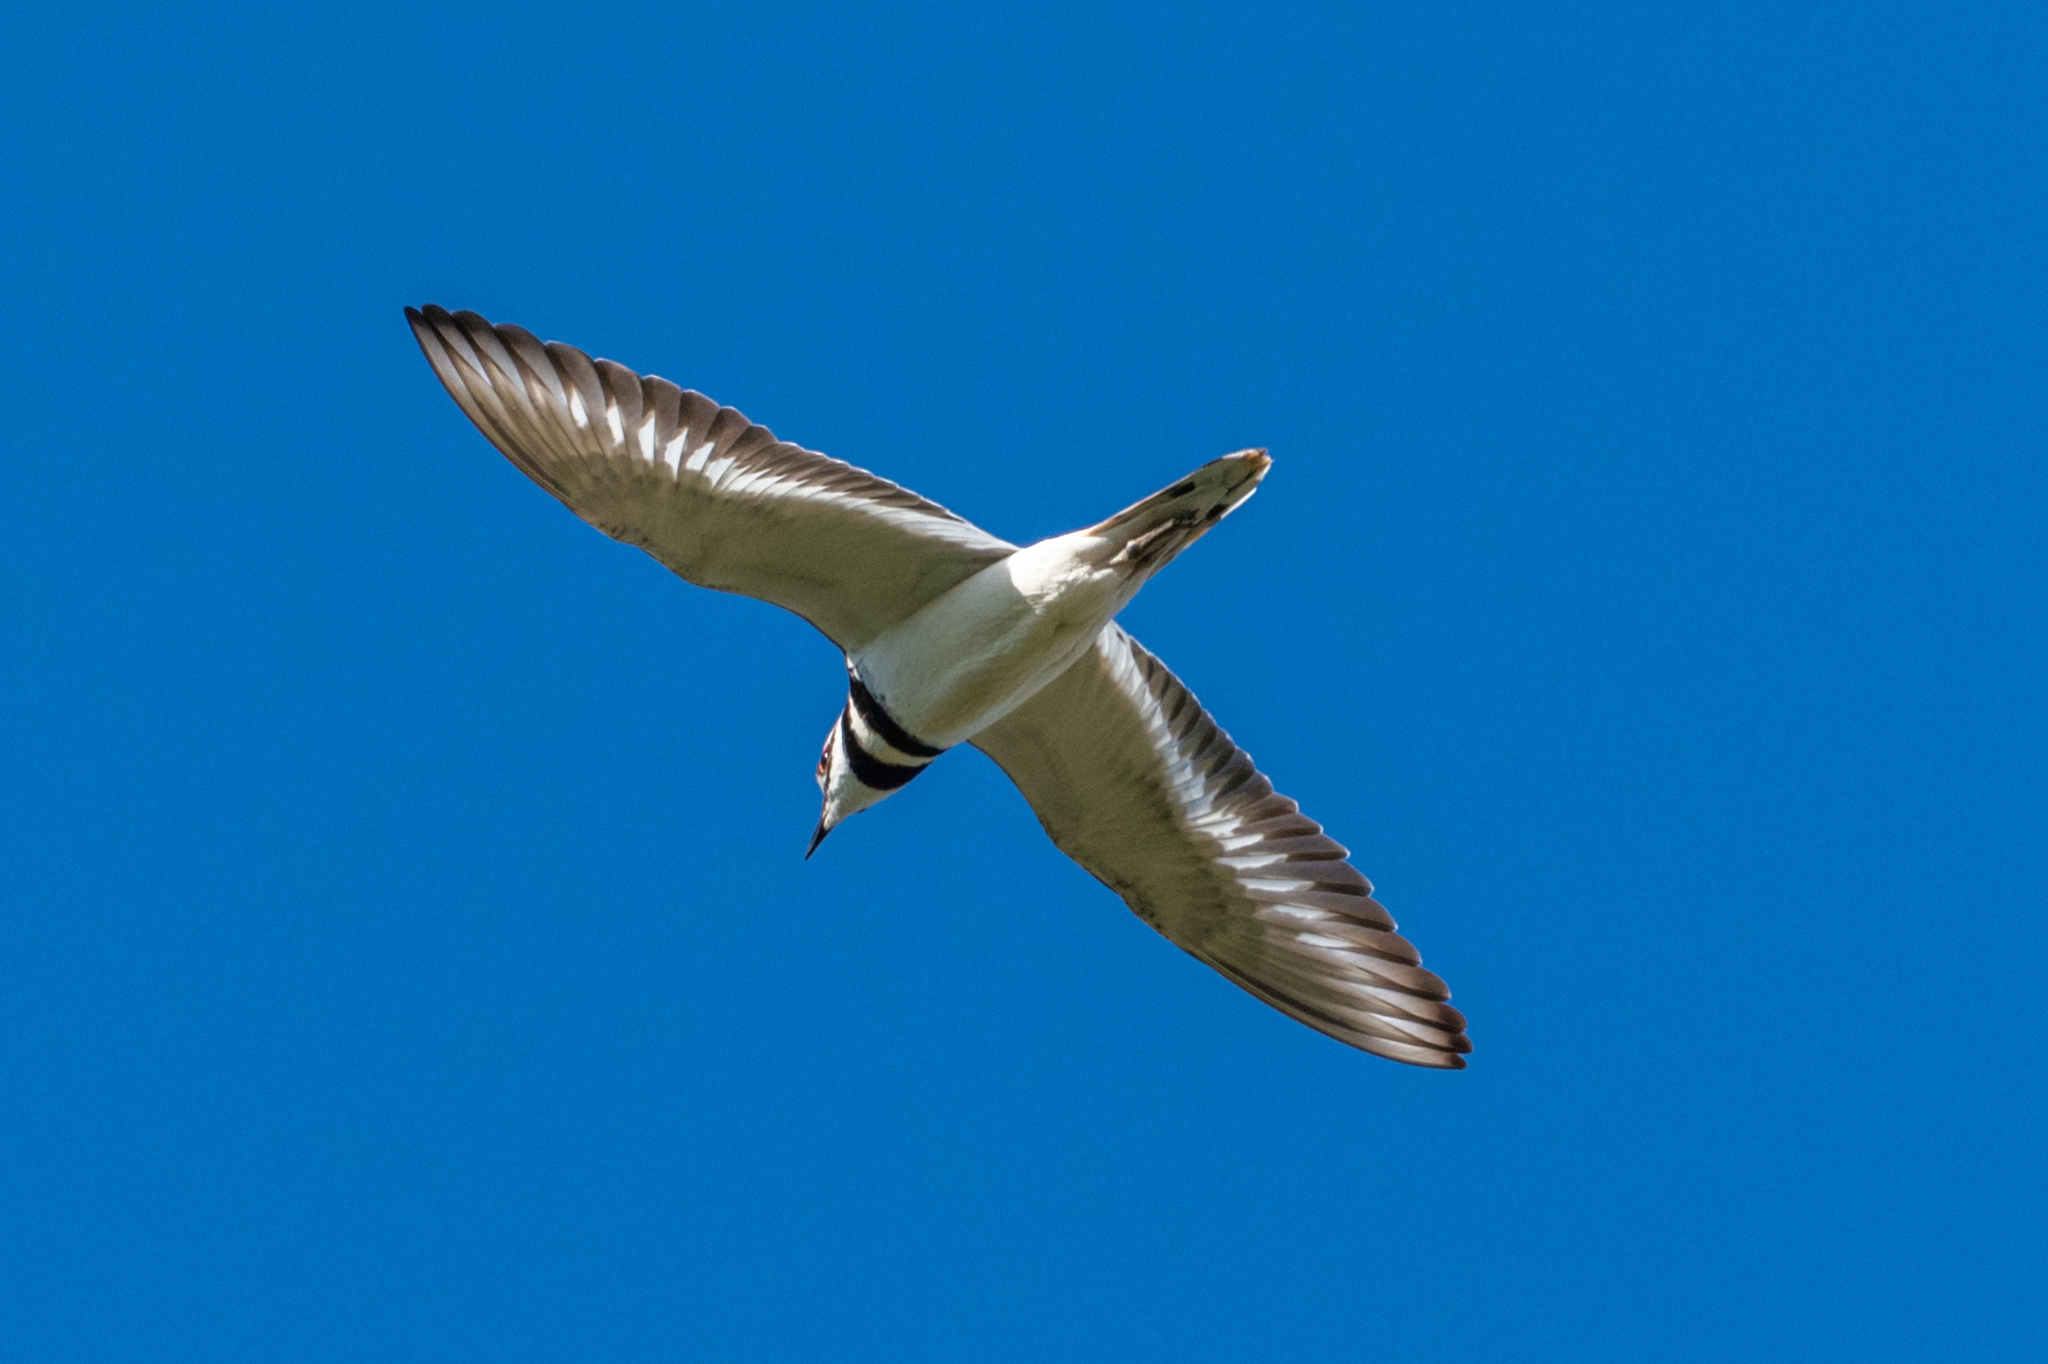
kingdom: Animalia
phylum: Chordata
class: Aves
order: Charadriiformes
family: Charadriidae
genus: Charadrius
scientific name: Charadrius vociferus
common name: Killdeer
